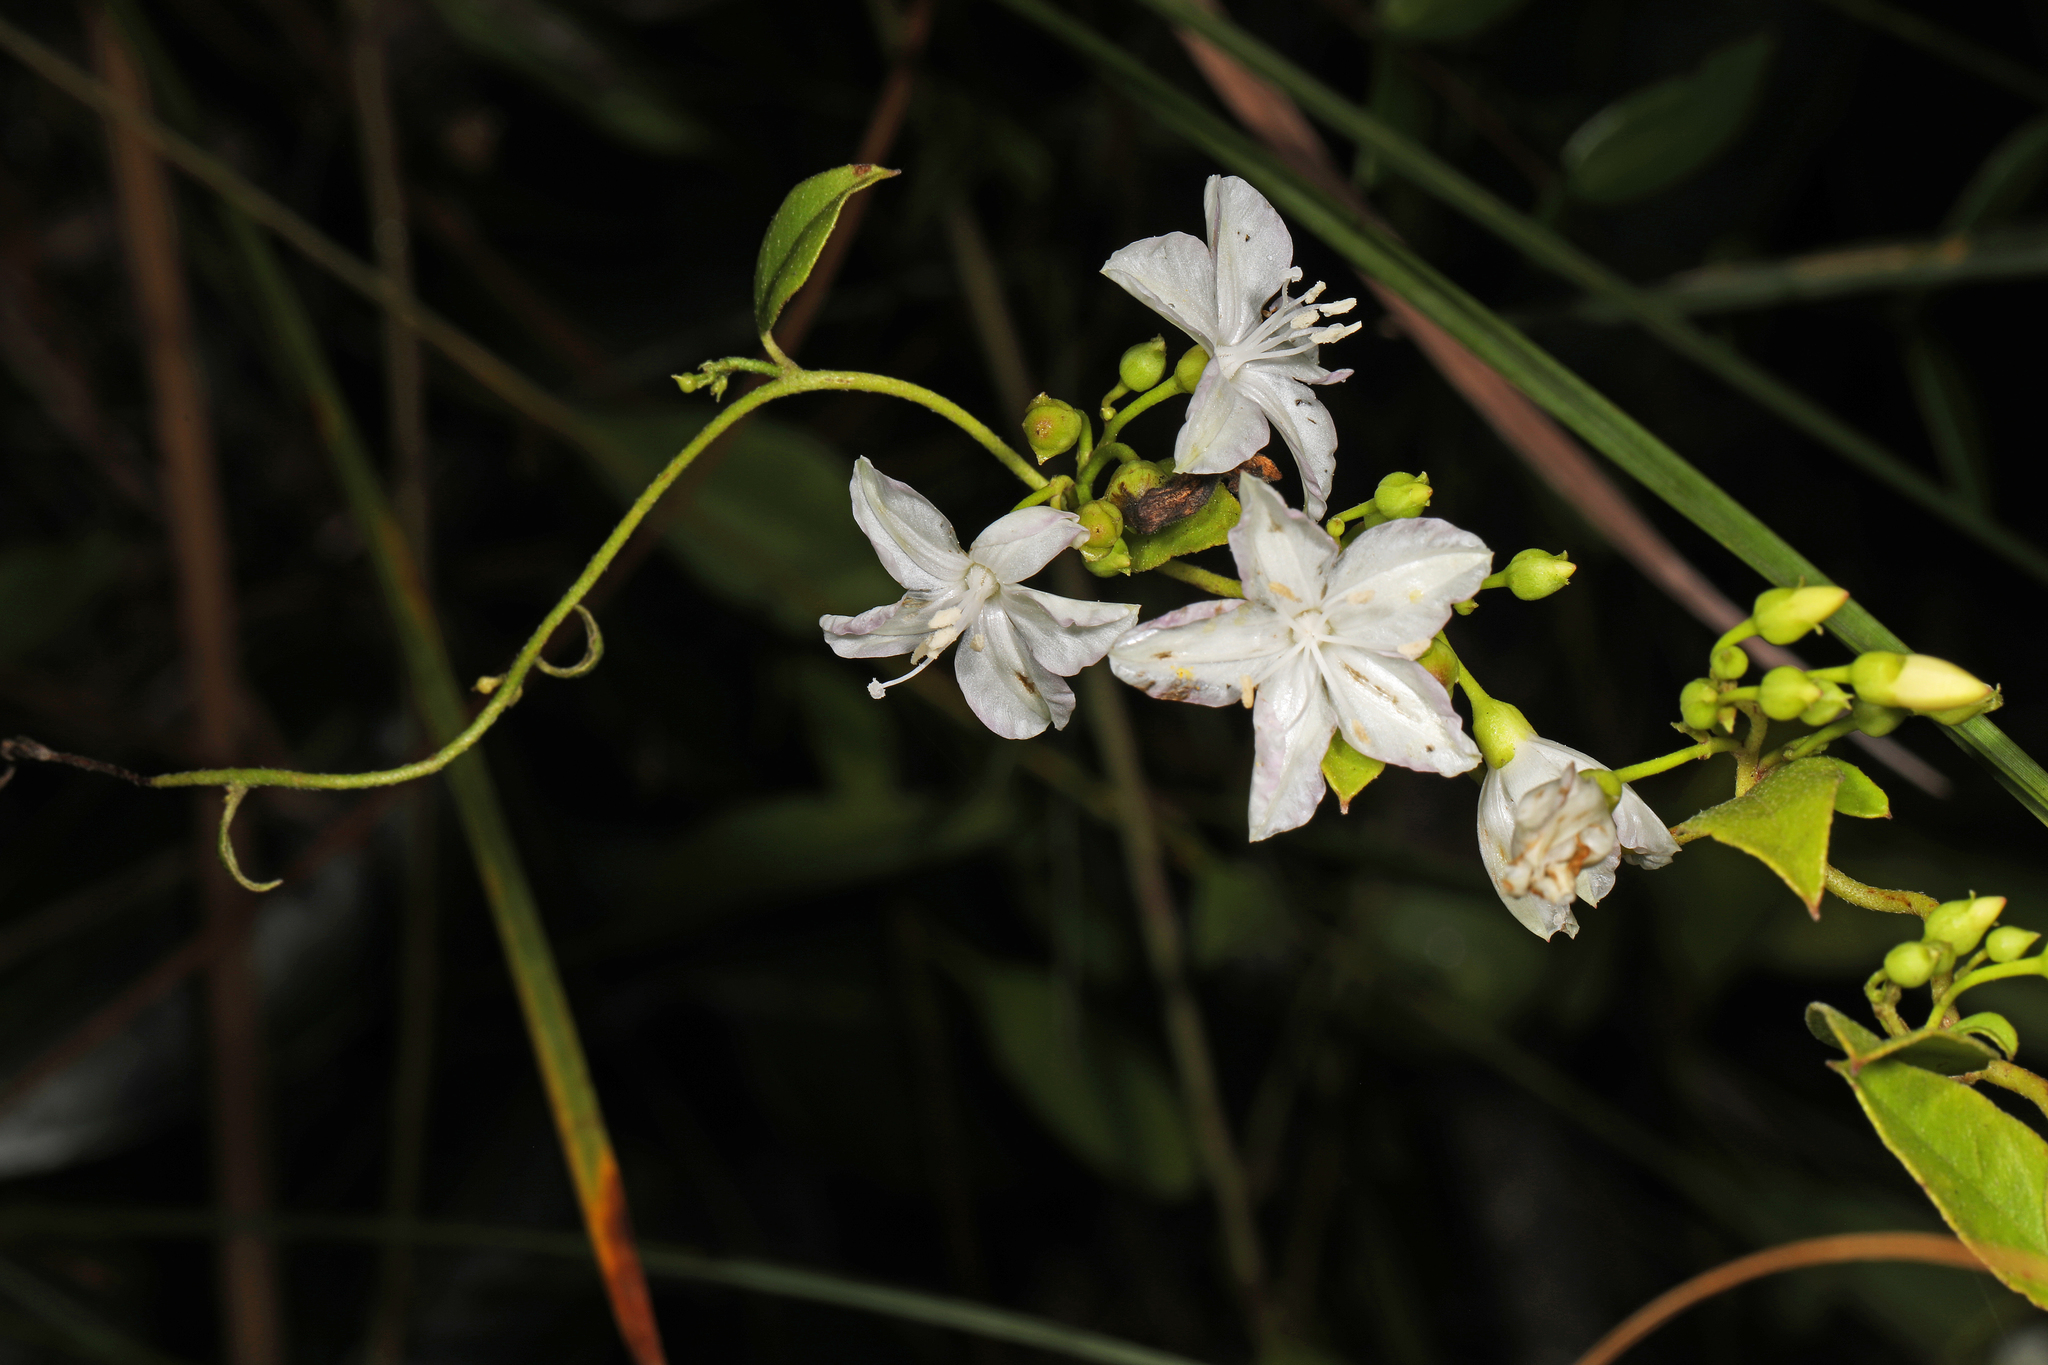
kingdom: Plantae
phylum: Tracheophyta
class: Magnoliopsida
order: Solanales
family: Convolvulaceae
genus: Jacquemontia
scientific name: Jacquemontia curtissii
